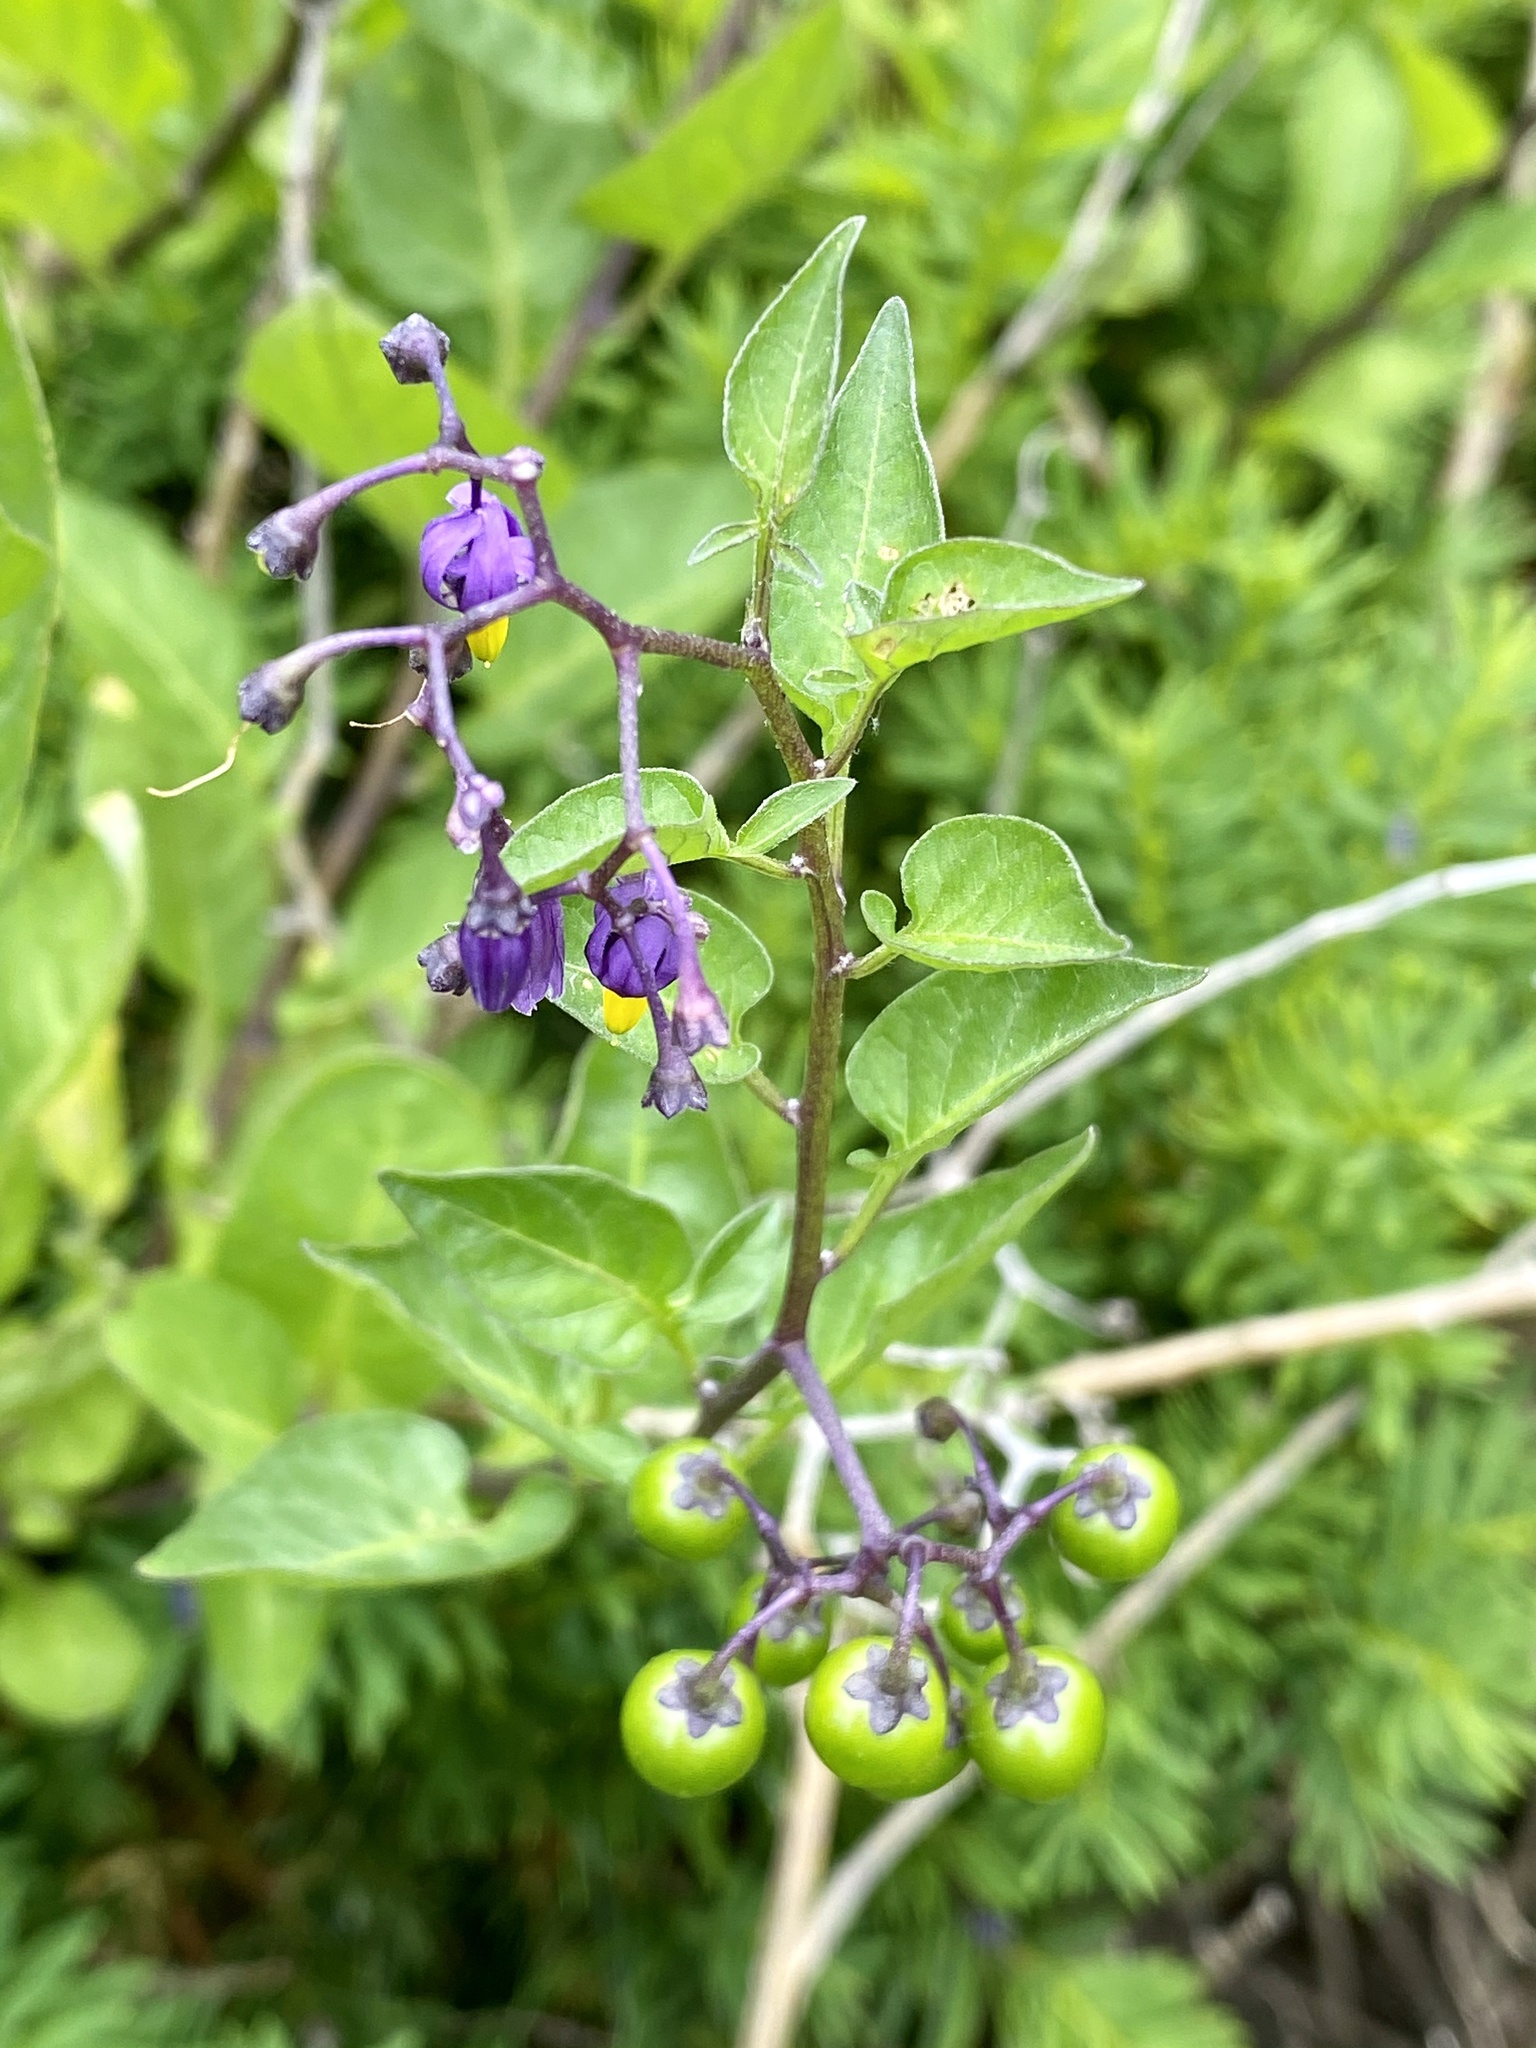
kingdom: Plantae
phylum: Tracheophyta
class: Magnoliopsida
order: Solanales
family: Solanaceae
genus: Solanum
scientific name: Solanum dulcamara
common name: Climbing nightshade
